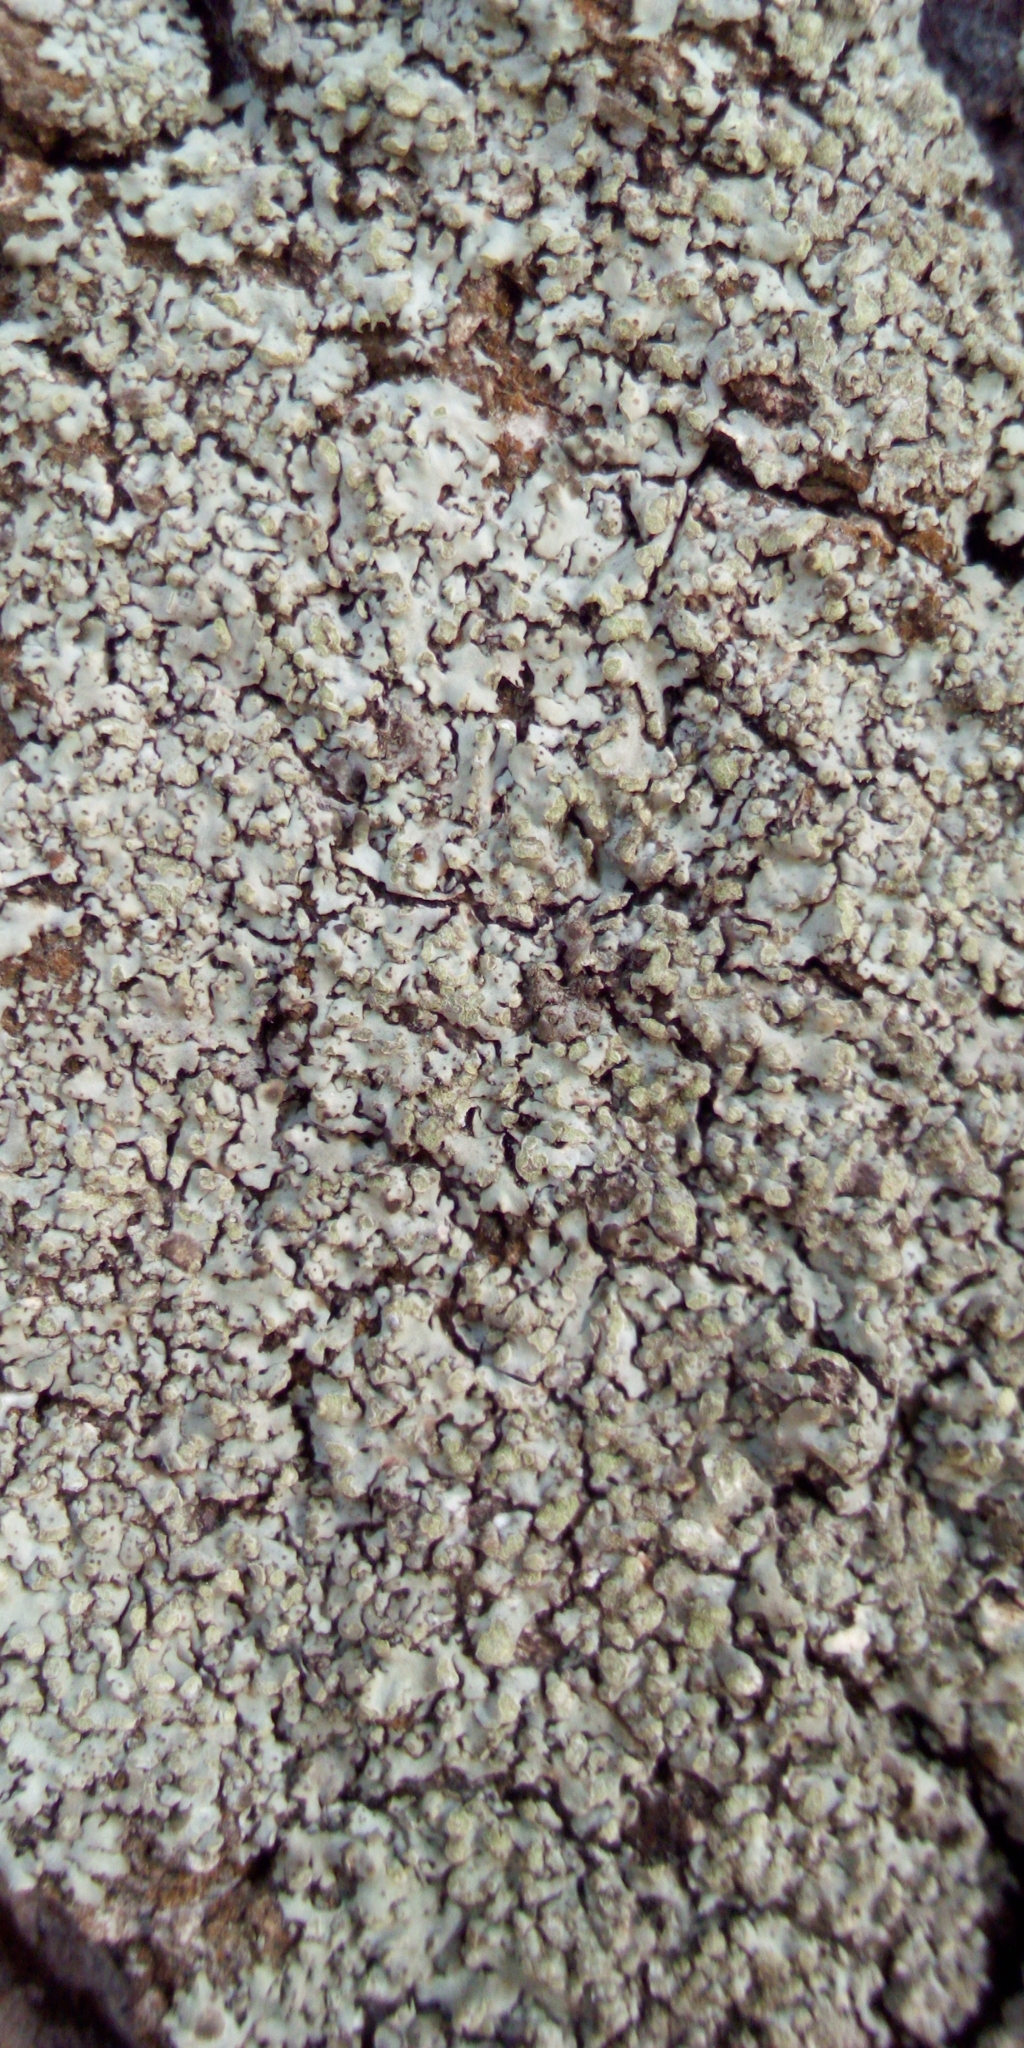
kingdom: Fungi
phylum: Ascomycota
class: Lecanoromycetes
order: Caliciales
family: Physciaceae
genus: Phaeophyscia
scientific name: Phaeophyscia orbicularis
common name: Mealy shadow lichen
